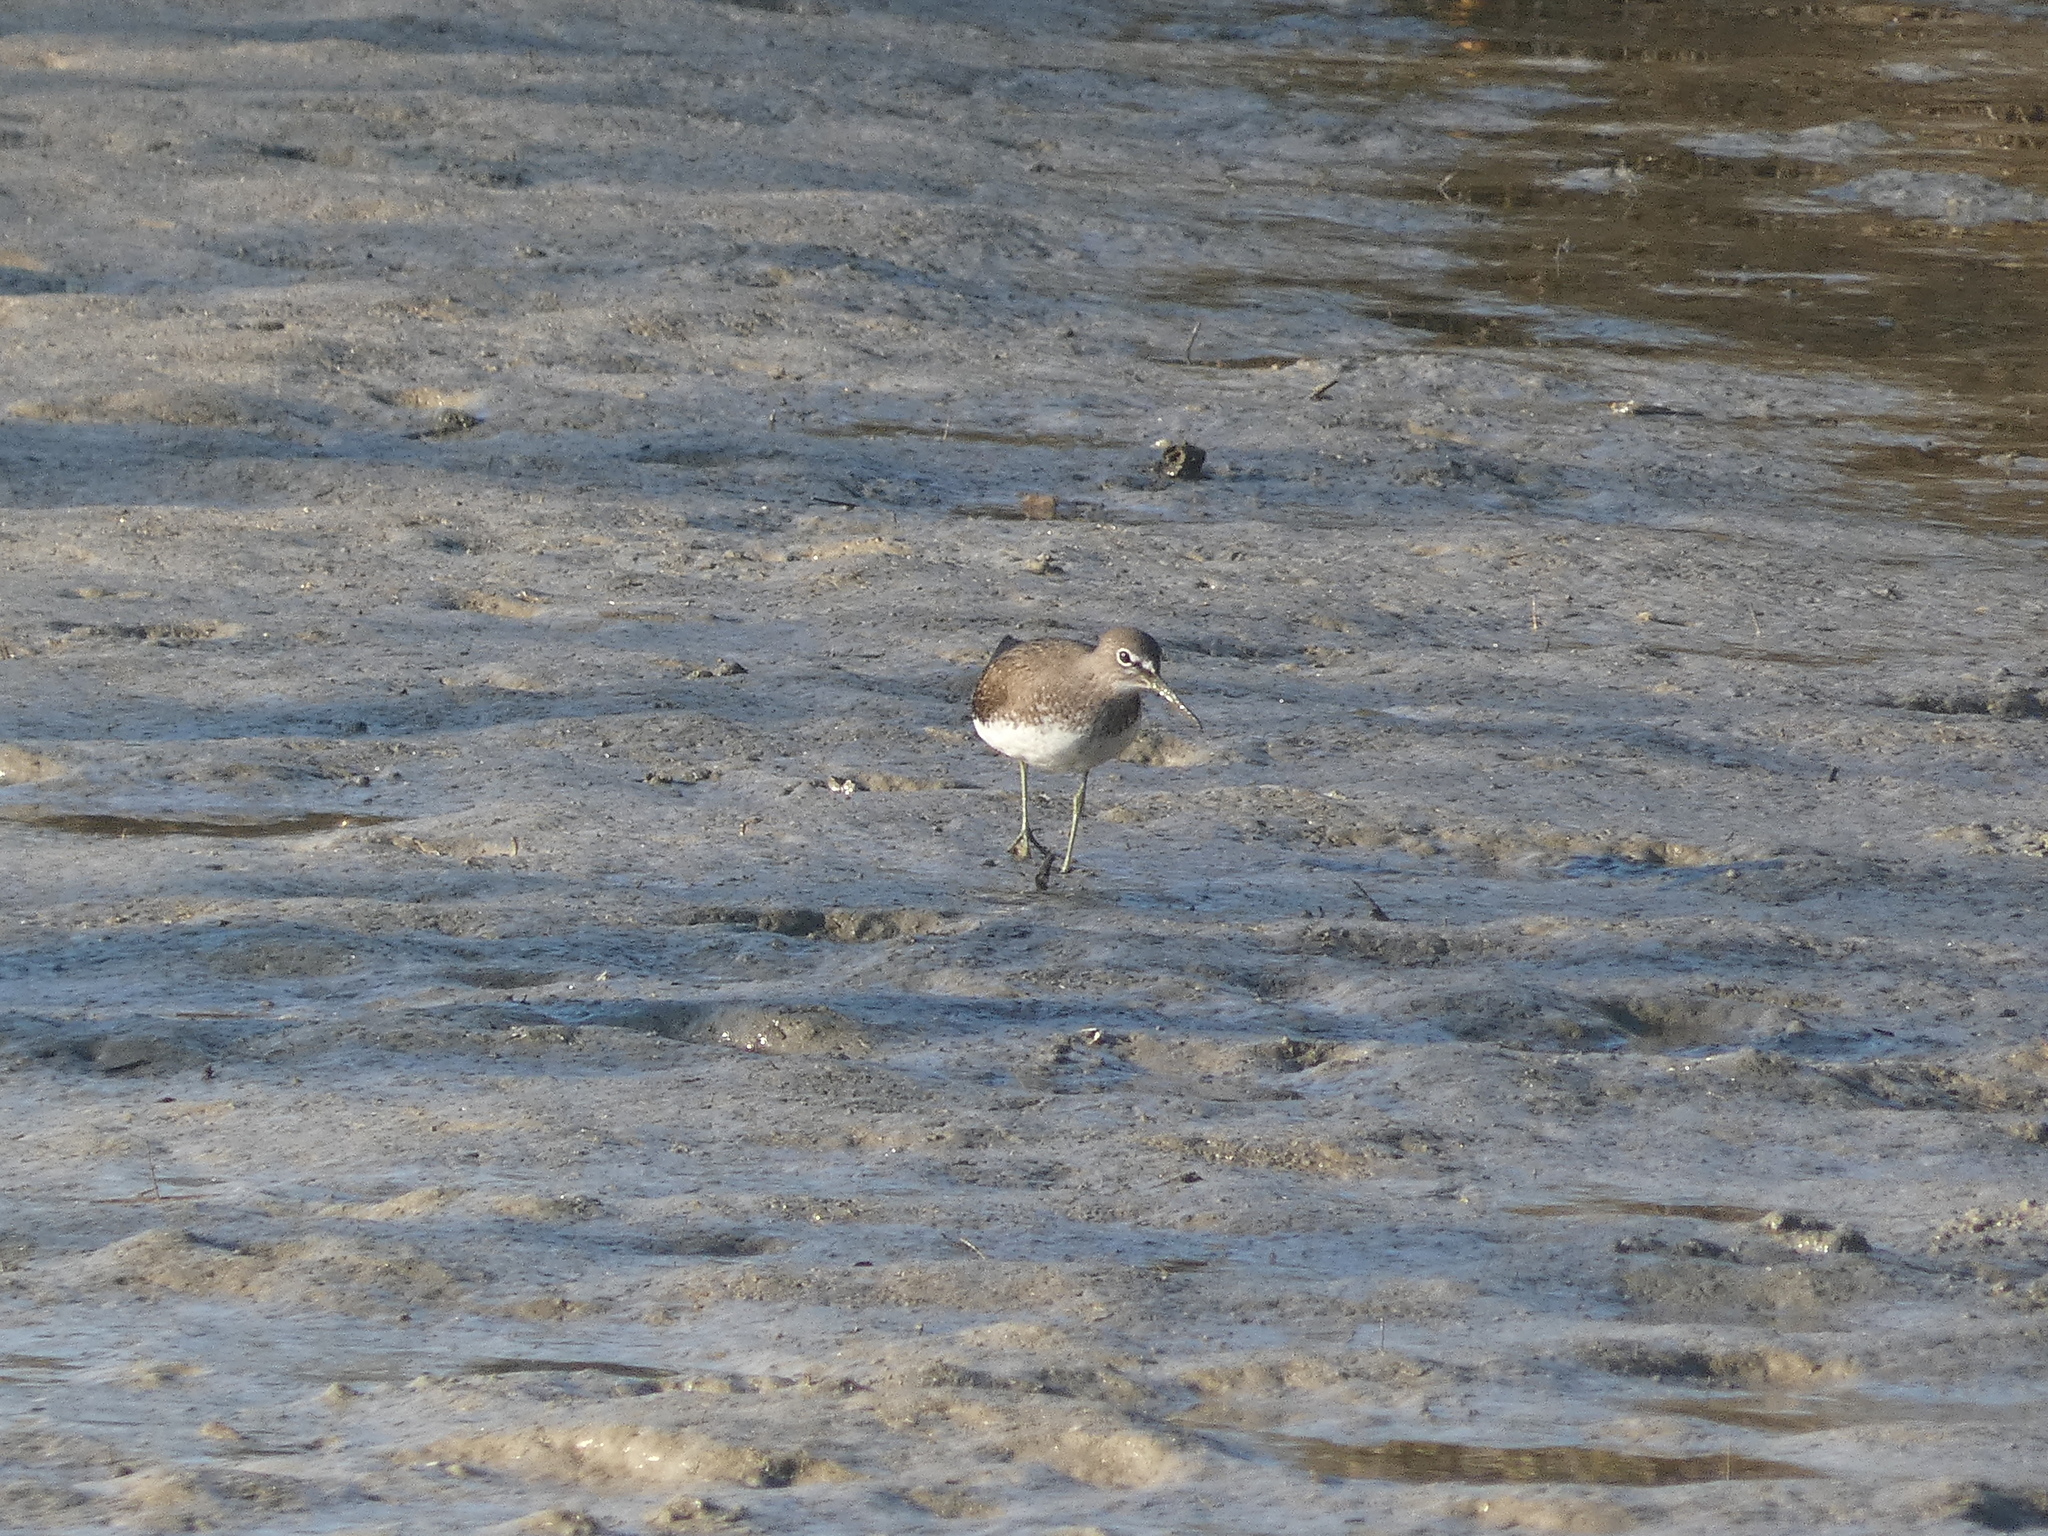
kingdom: Animalia
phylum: Chordata
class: Aves
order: Charadriiformes
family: Scolopacidae
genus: Tringa
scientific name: Tringa ochropus
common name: Green sandpiper
